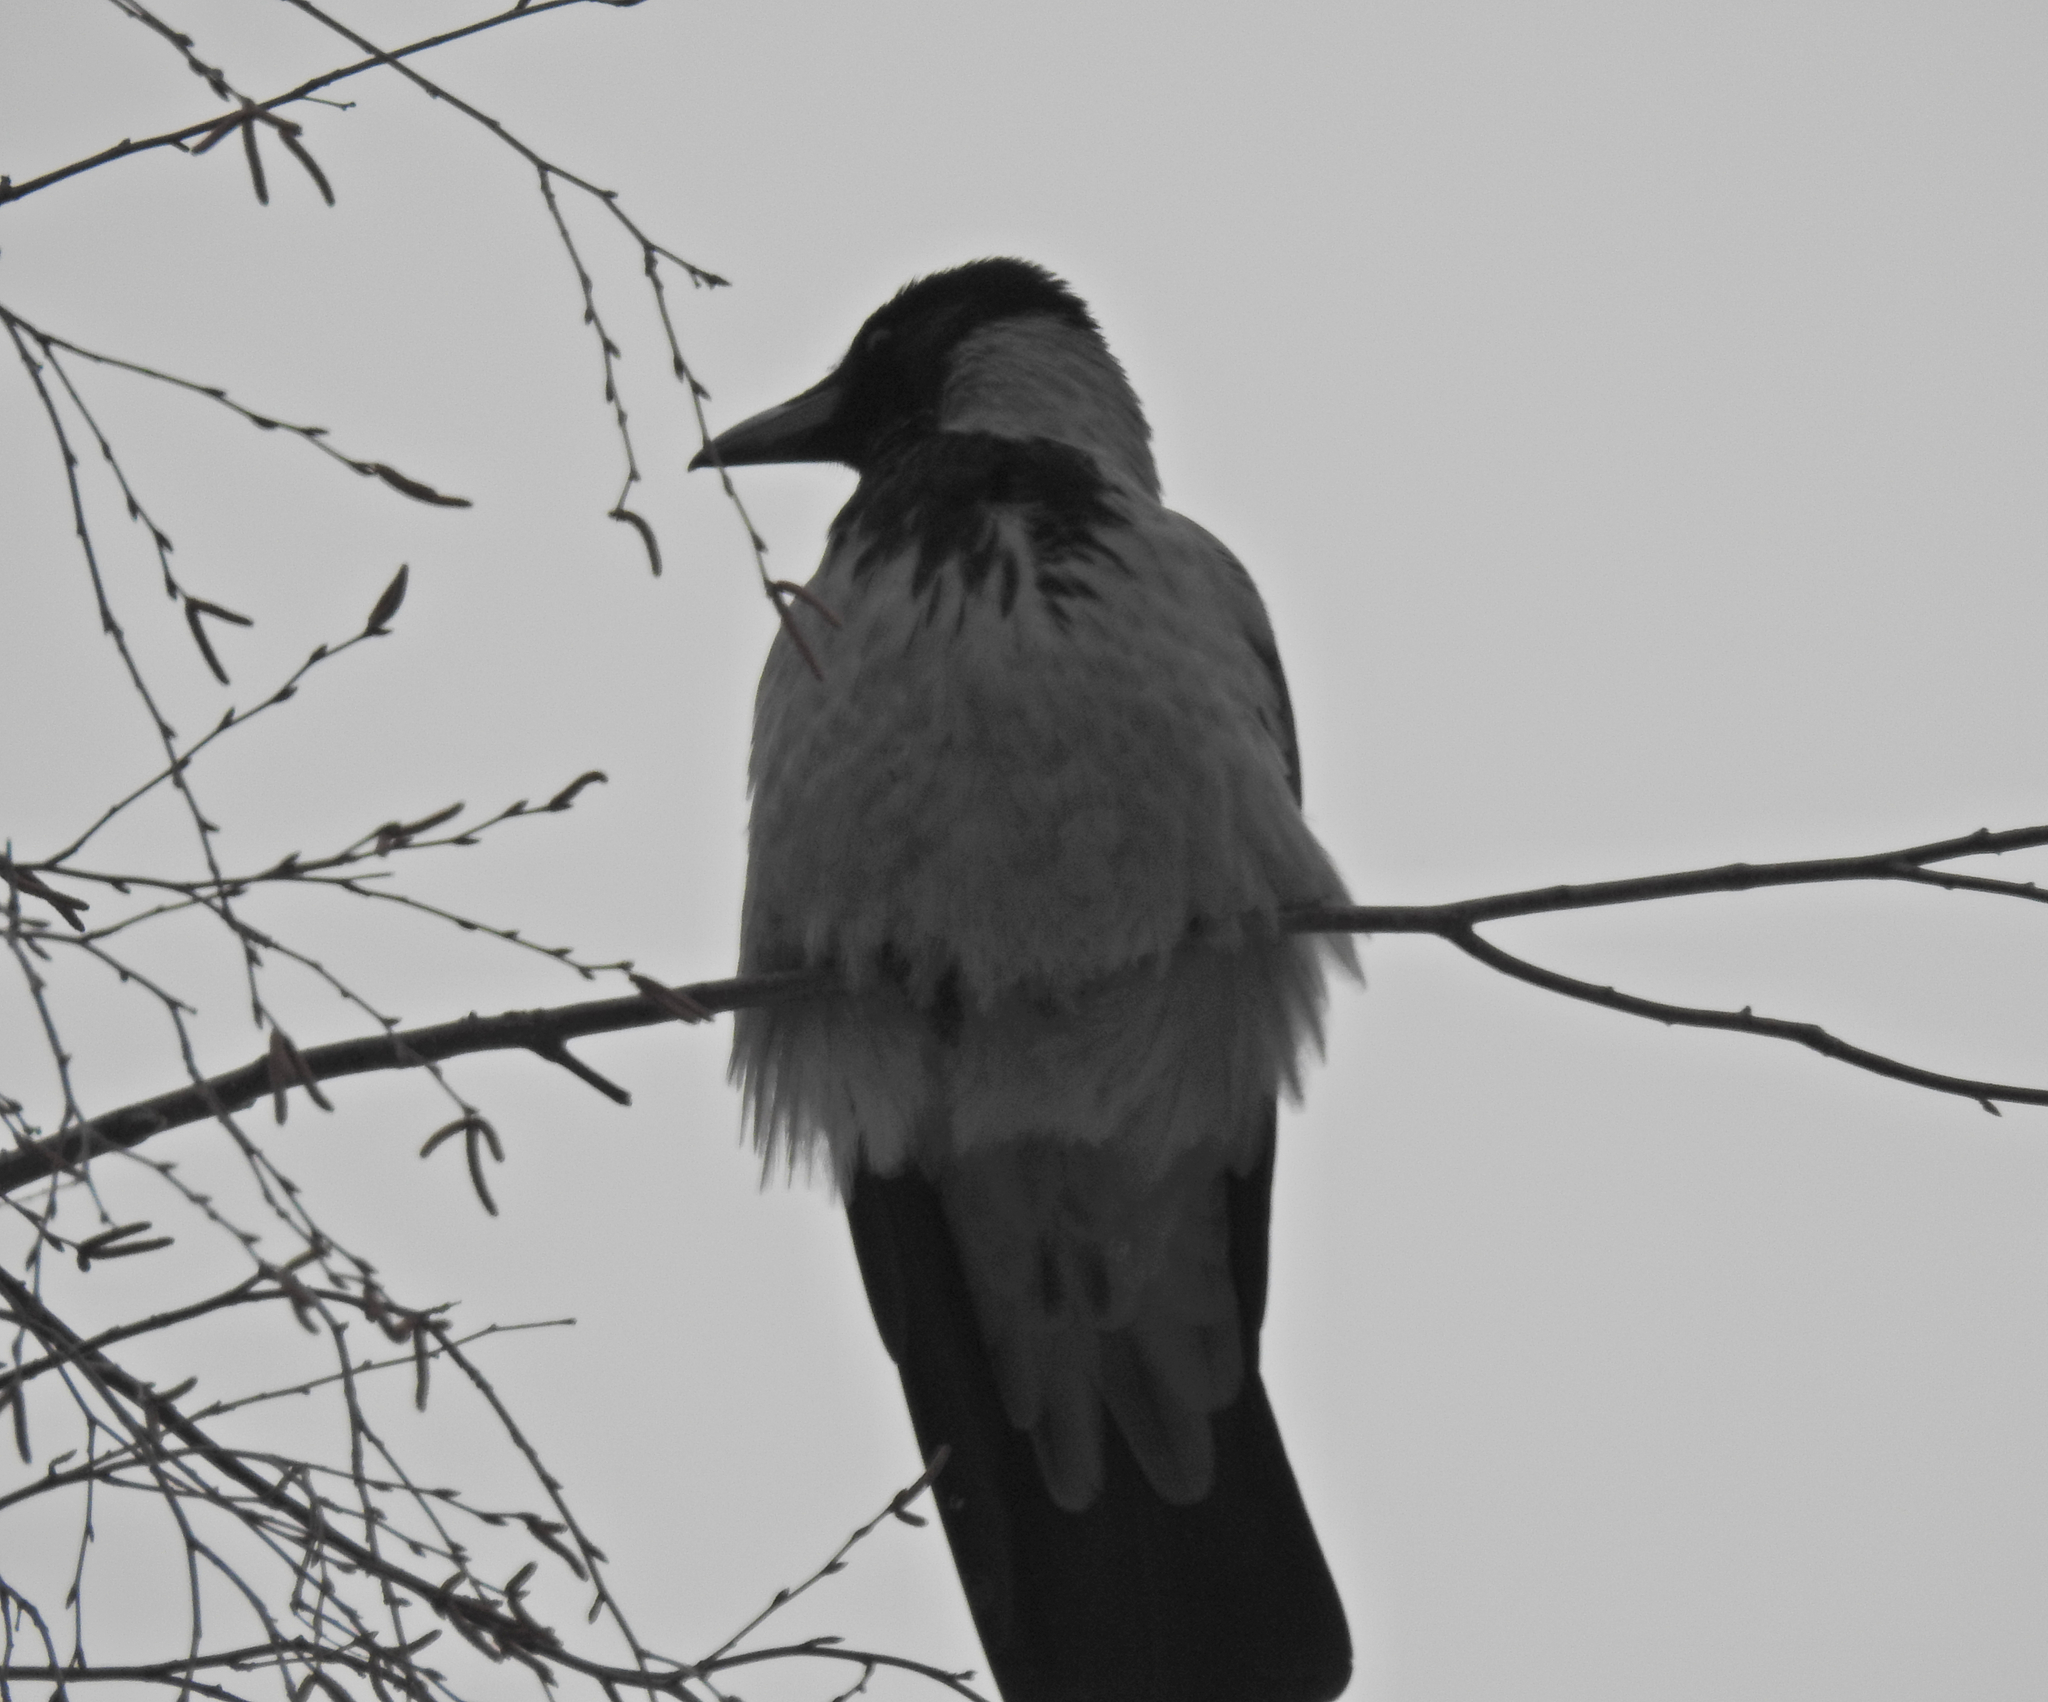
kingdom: Animalia
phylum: Chordata
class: Aves
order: Passeriformes
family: Corvidae
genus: Corvus
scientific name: Corvus cornix
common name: Hooded crow
